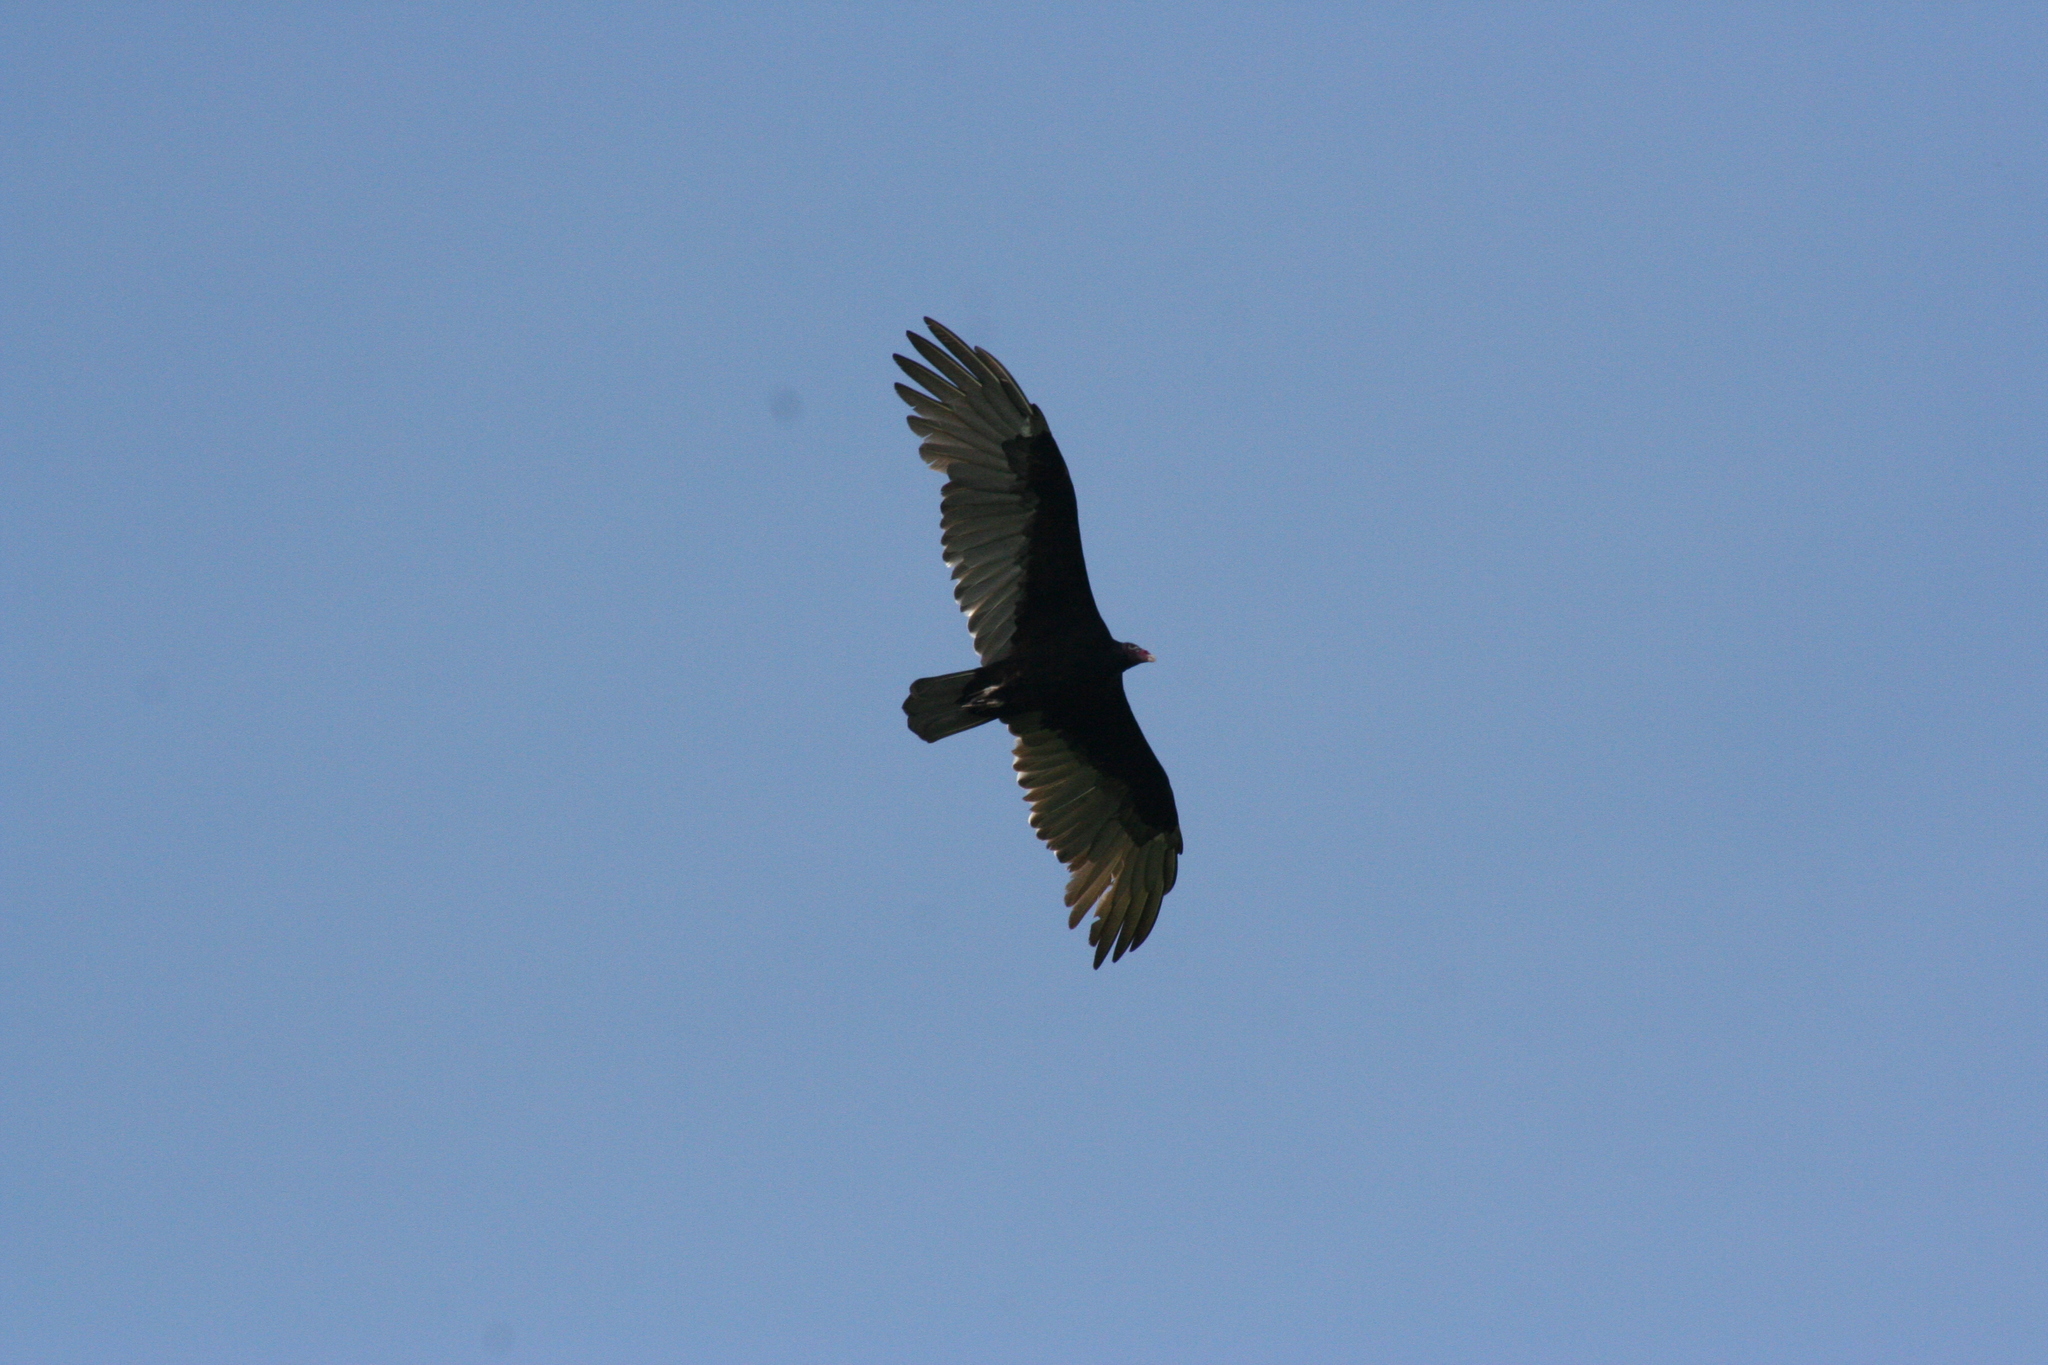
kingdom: Animalia
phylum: Chordata
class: Aves
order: Accipitriformes
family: Cathartidae
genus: Cathartes
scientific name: Cathartes aura
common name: Turkey vulture
